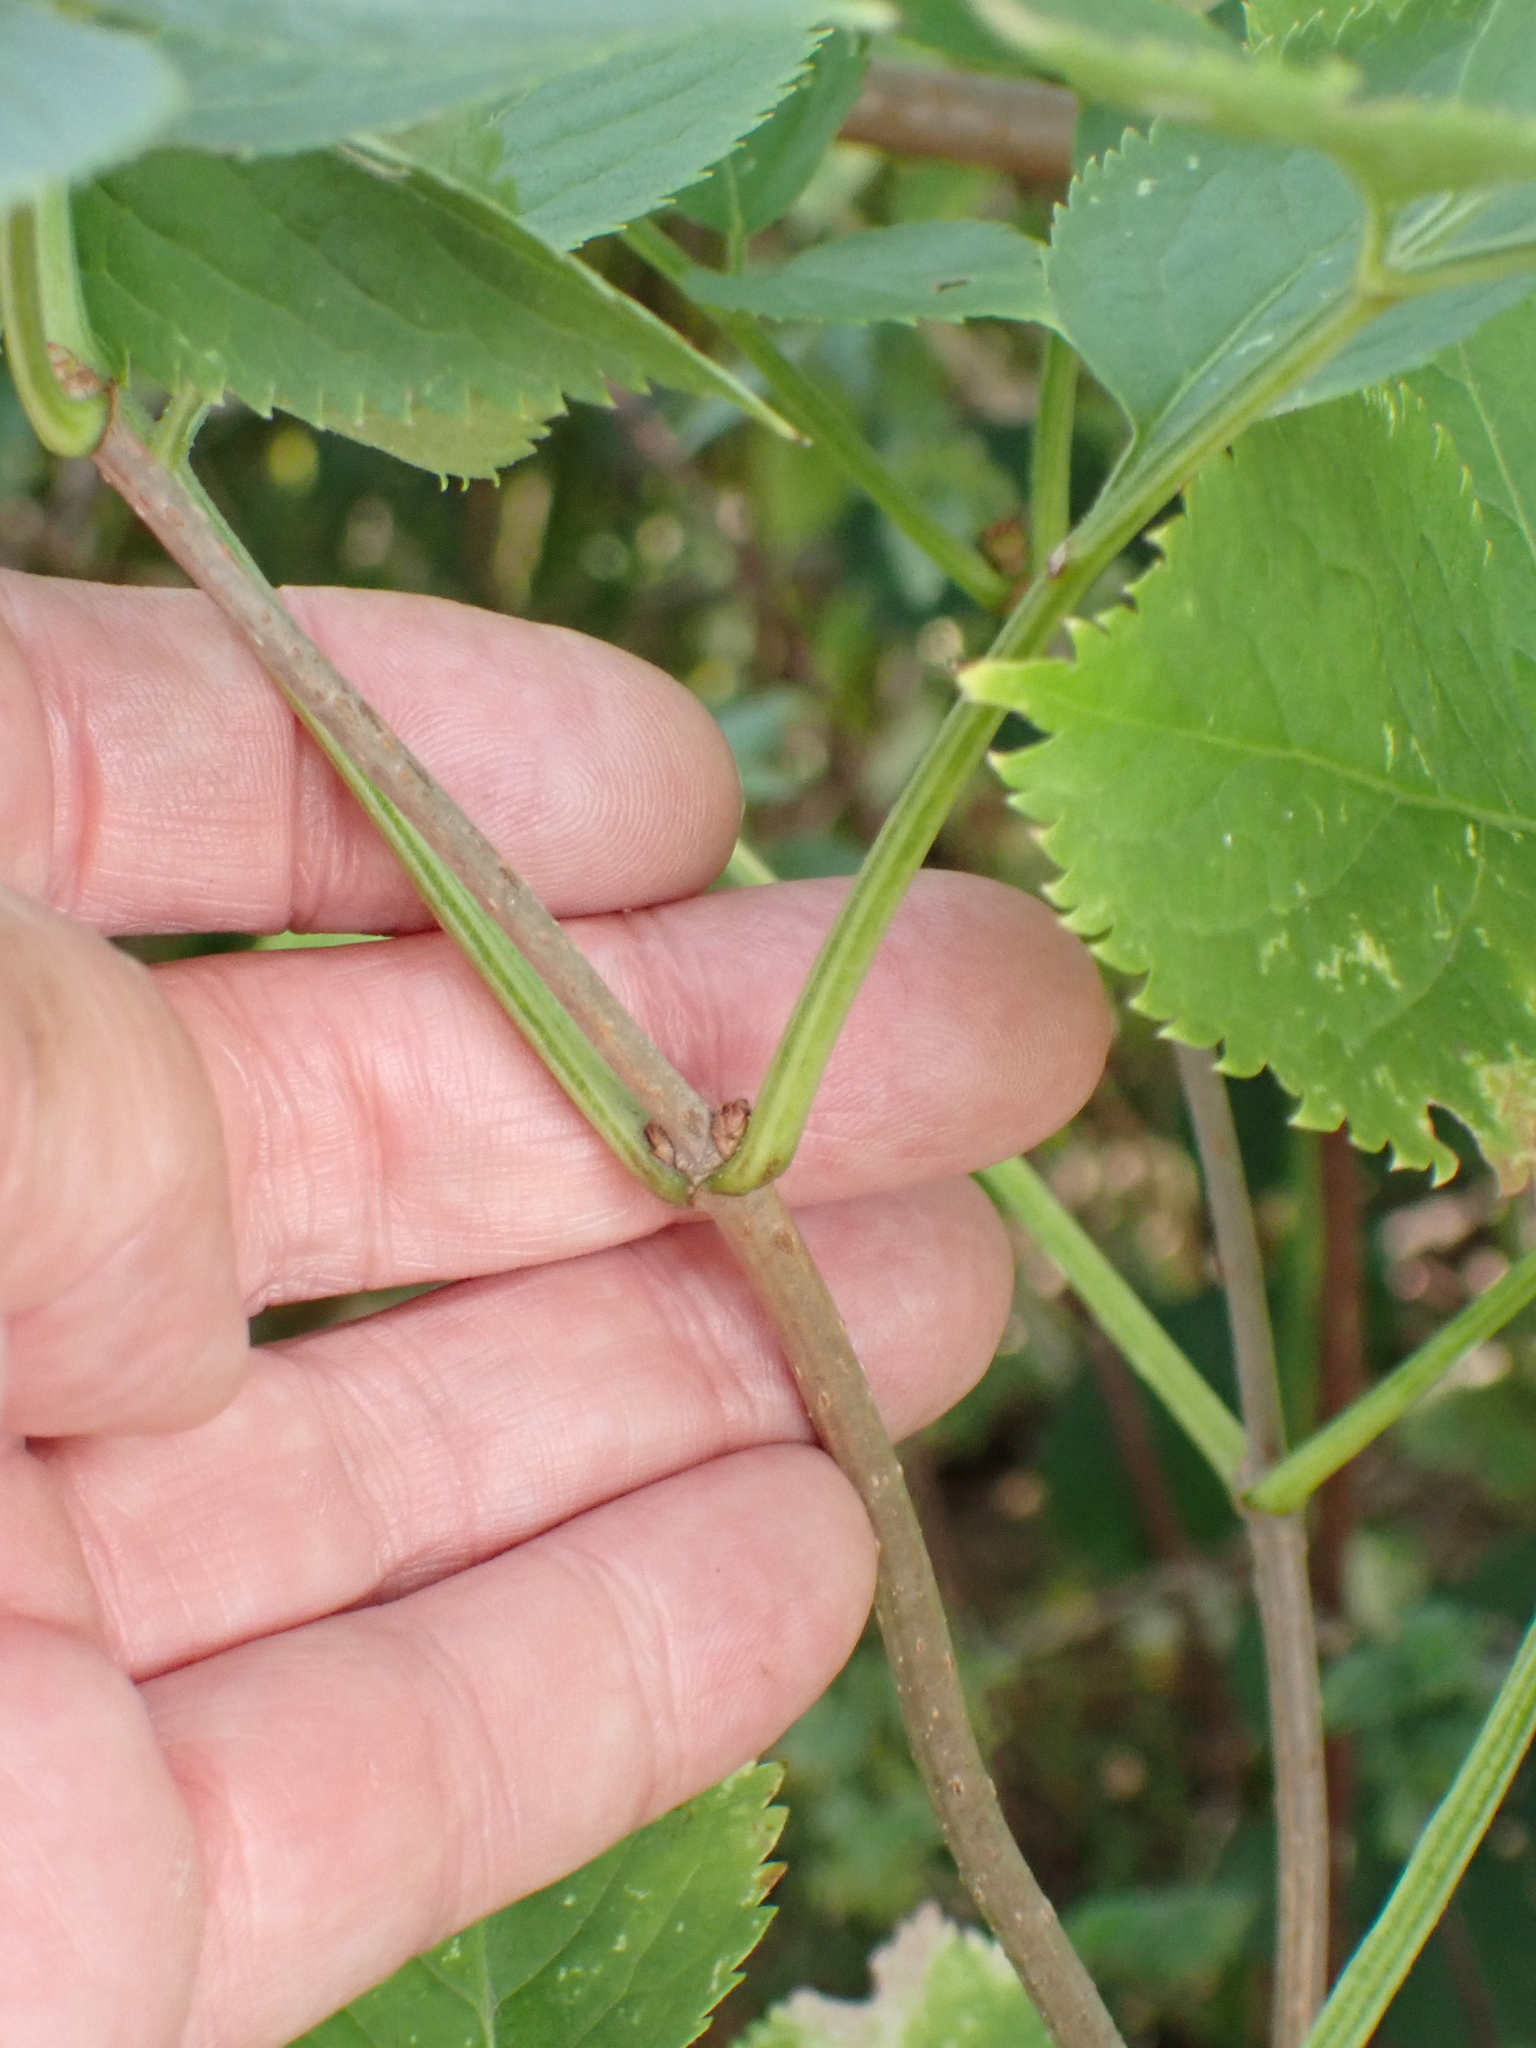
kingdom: Plantae
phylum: Tracheophyta
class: Magnoliopsida
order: Dipsacales
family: Viburnaceae
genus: Sambucus
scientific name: Sambucus nigra
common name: Elder
